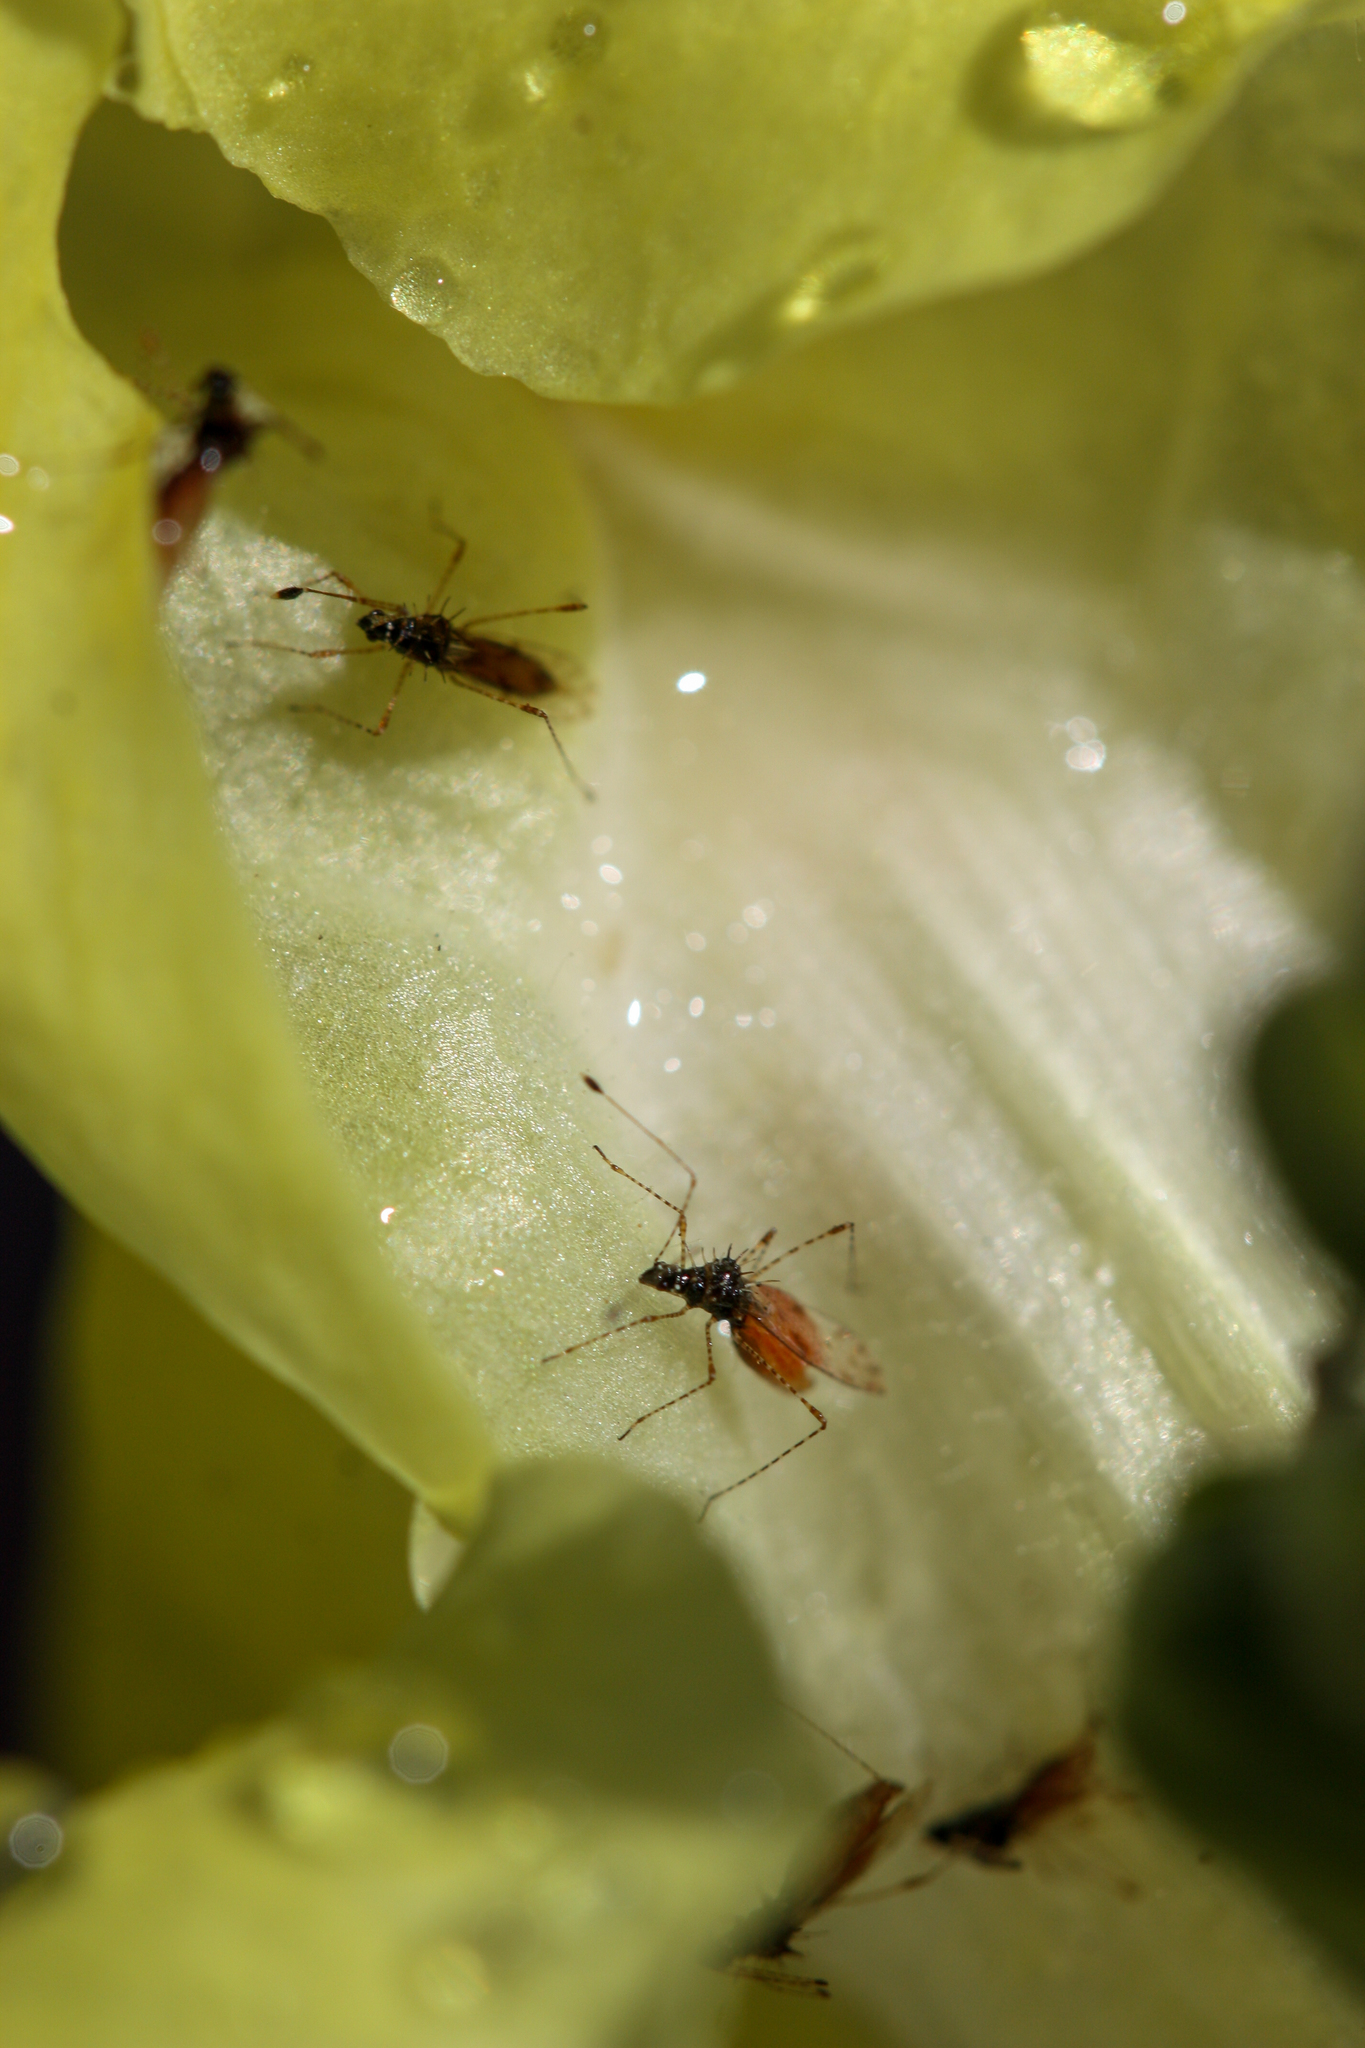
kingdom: Animalia
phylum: Arthropoda
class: Insecta
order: Hemiptera
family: Berytidae
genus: Pronotacantha
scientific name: Pronotacantha annulata
